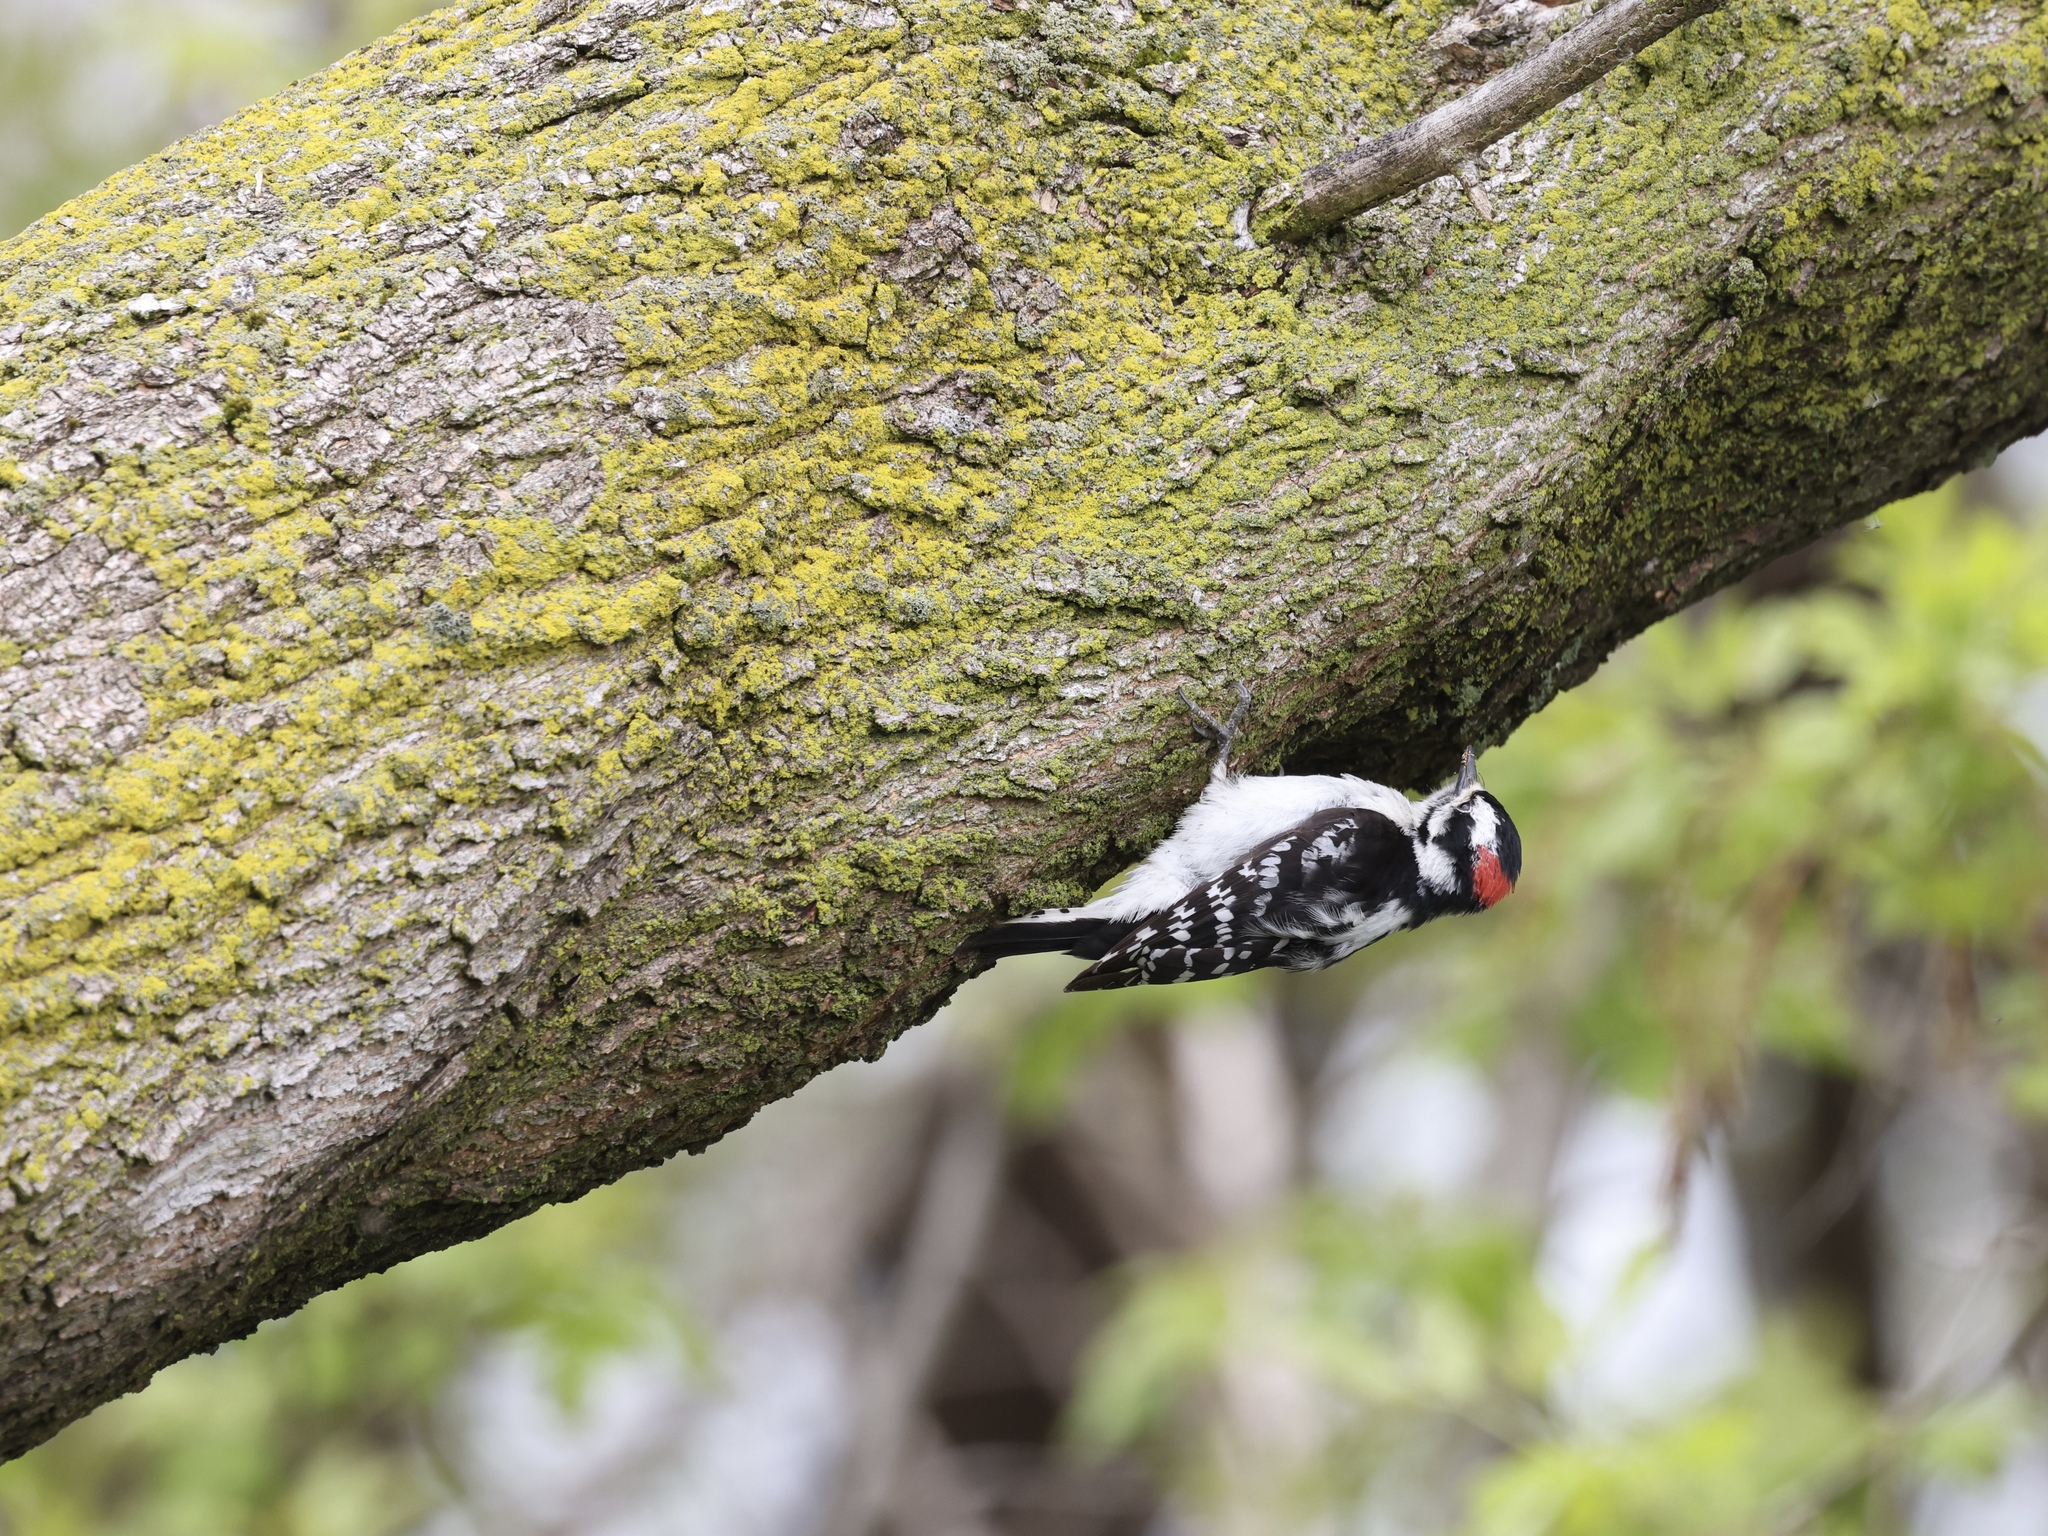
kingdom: Animalia
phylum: Chordata
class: Aves
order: Piciformes
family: Picidae
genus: Dryobates
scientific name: Dryobates pubescens
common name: Downy woodpecker
